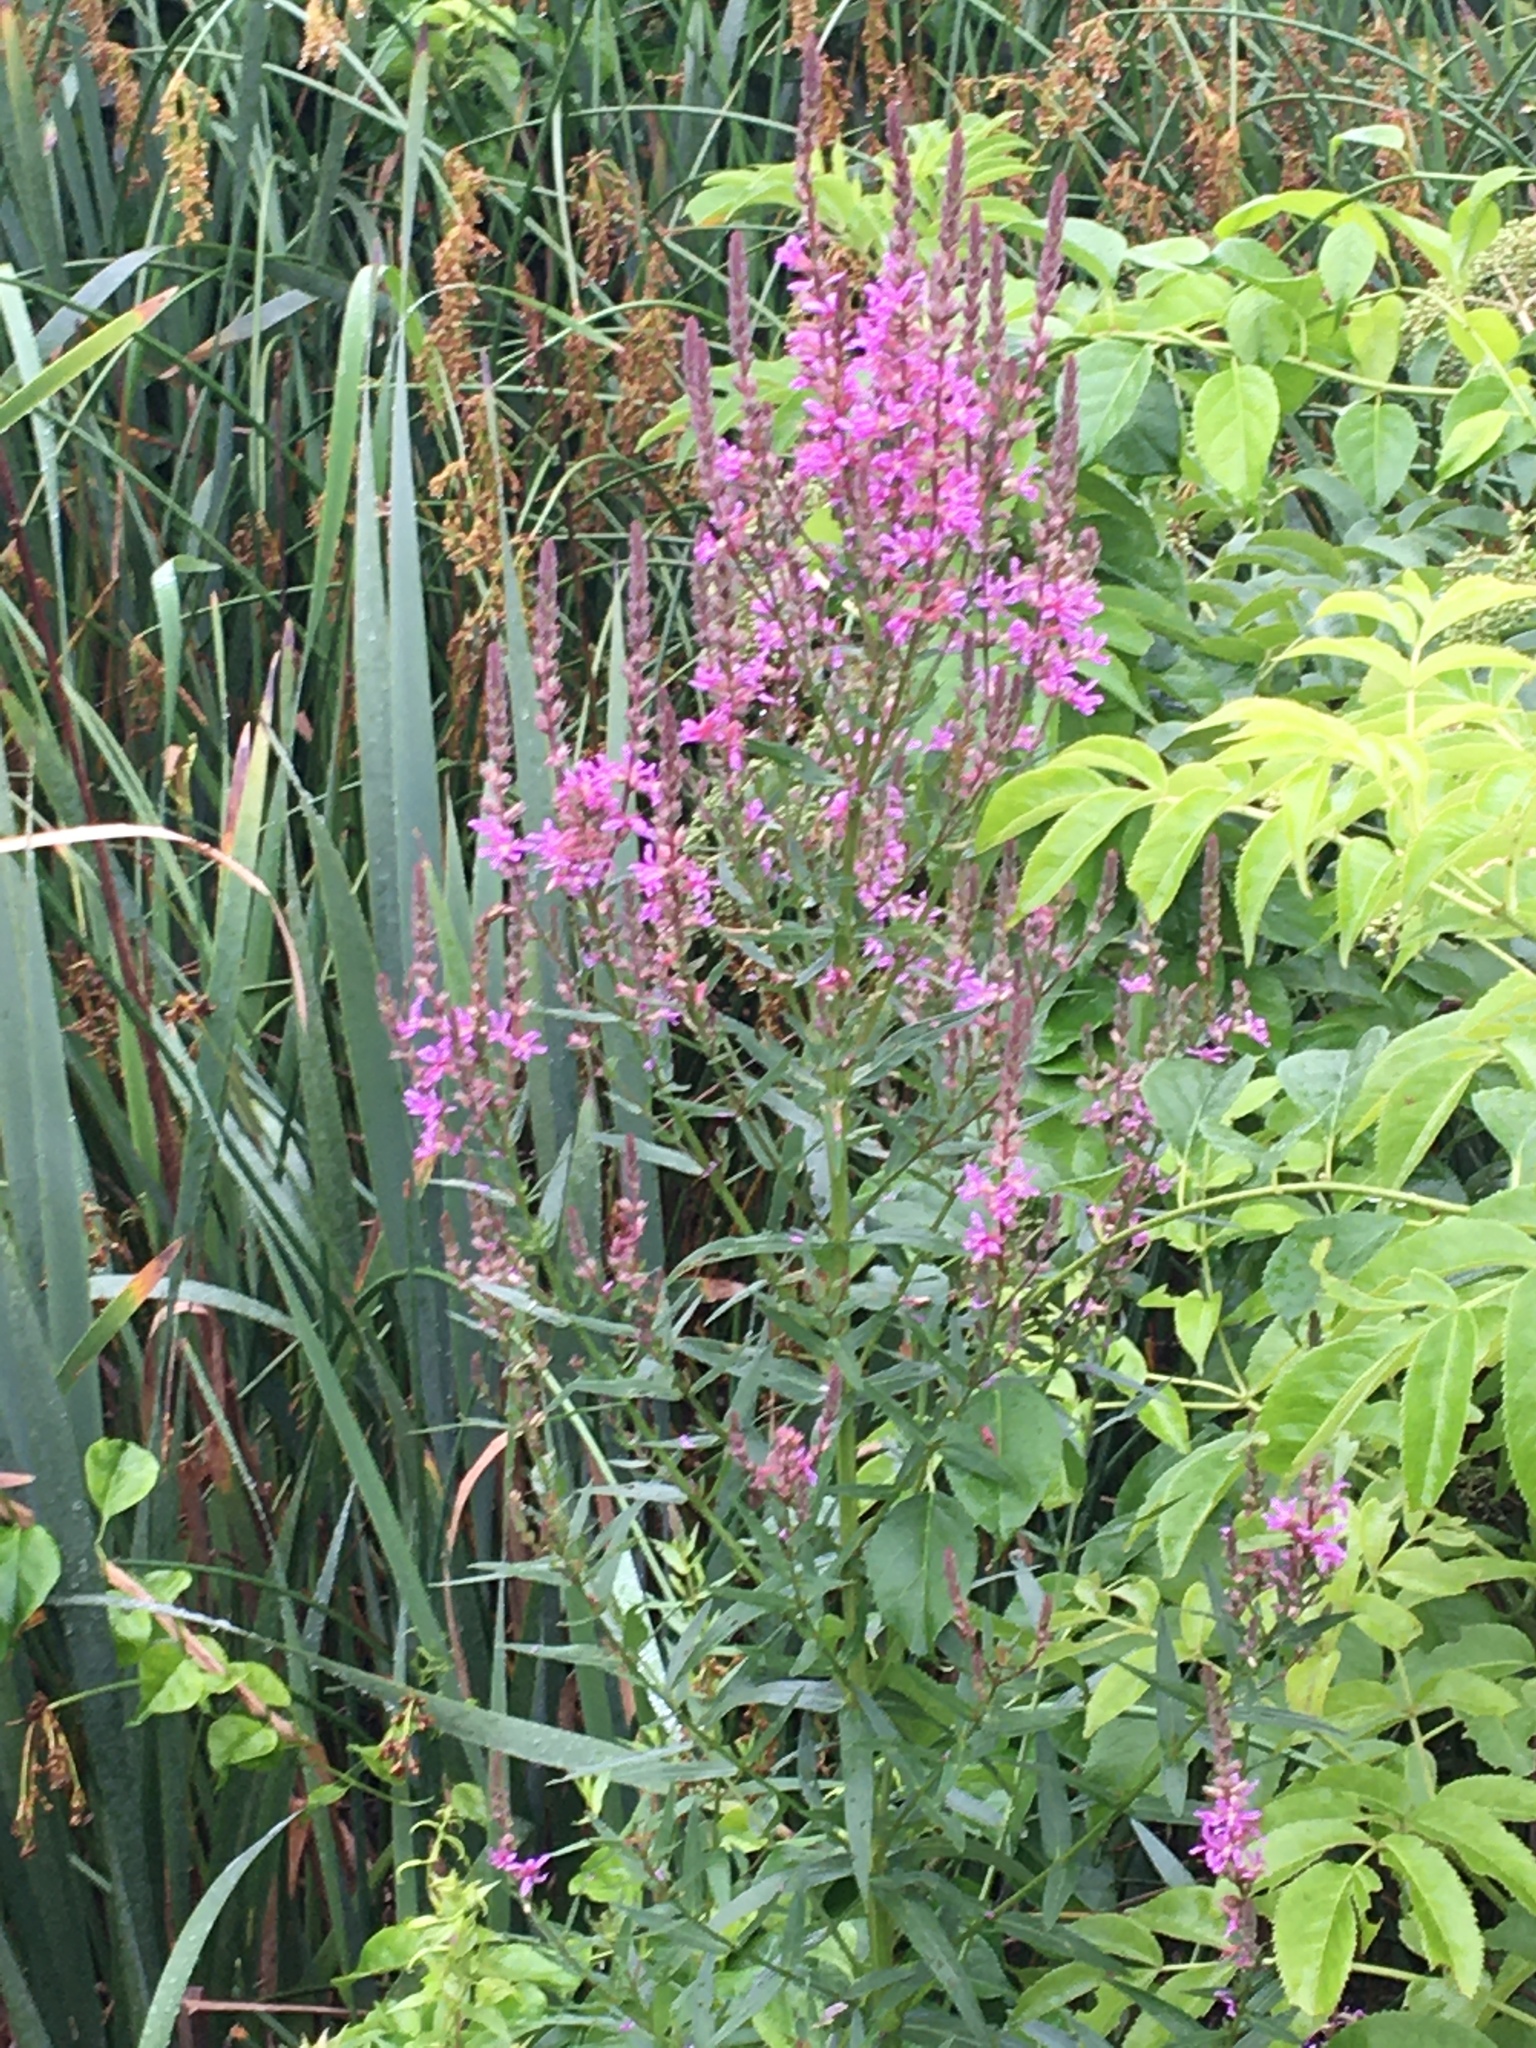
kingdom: Plantae
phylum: Tracheophyta
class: Magnoliopsida
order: Myrtales
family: Lythraceae
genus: Lythrum
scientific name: Lythrum salicaria
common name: Purple loosestrife
